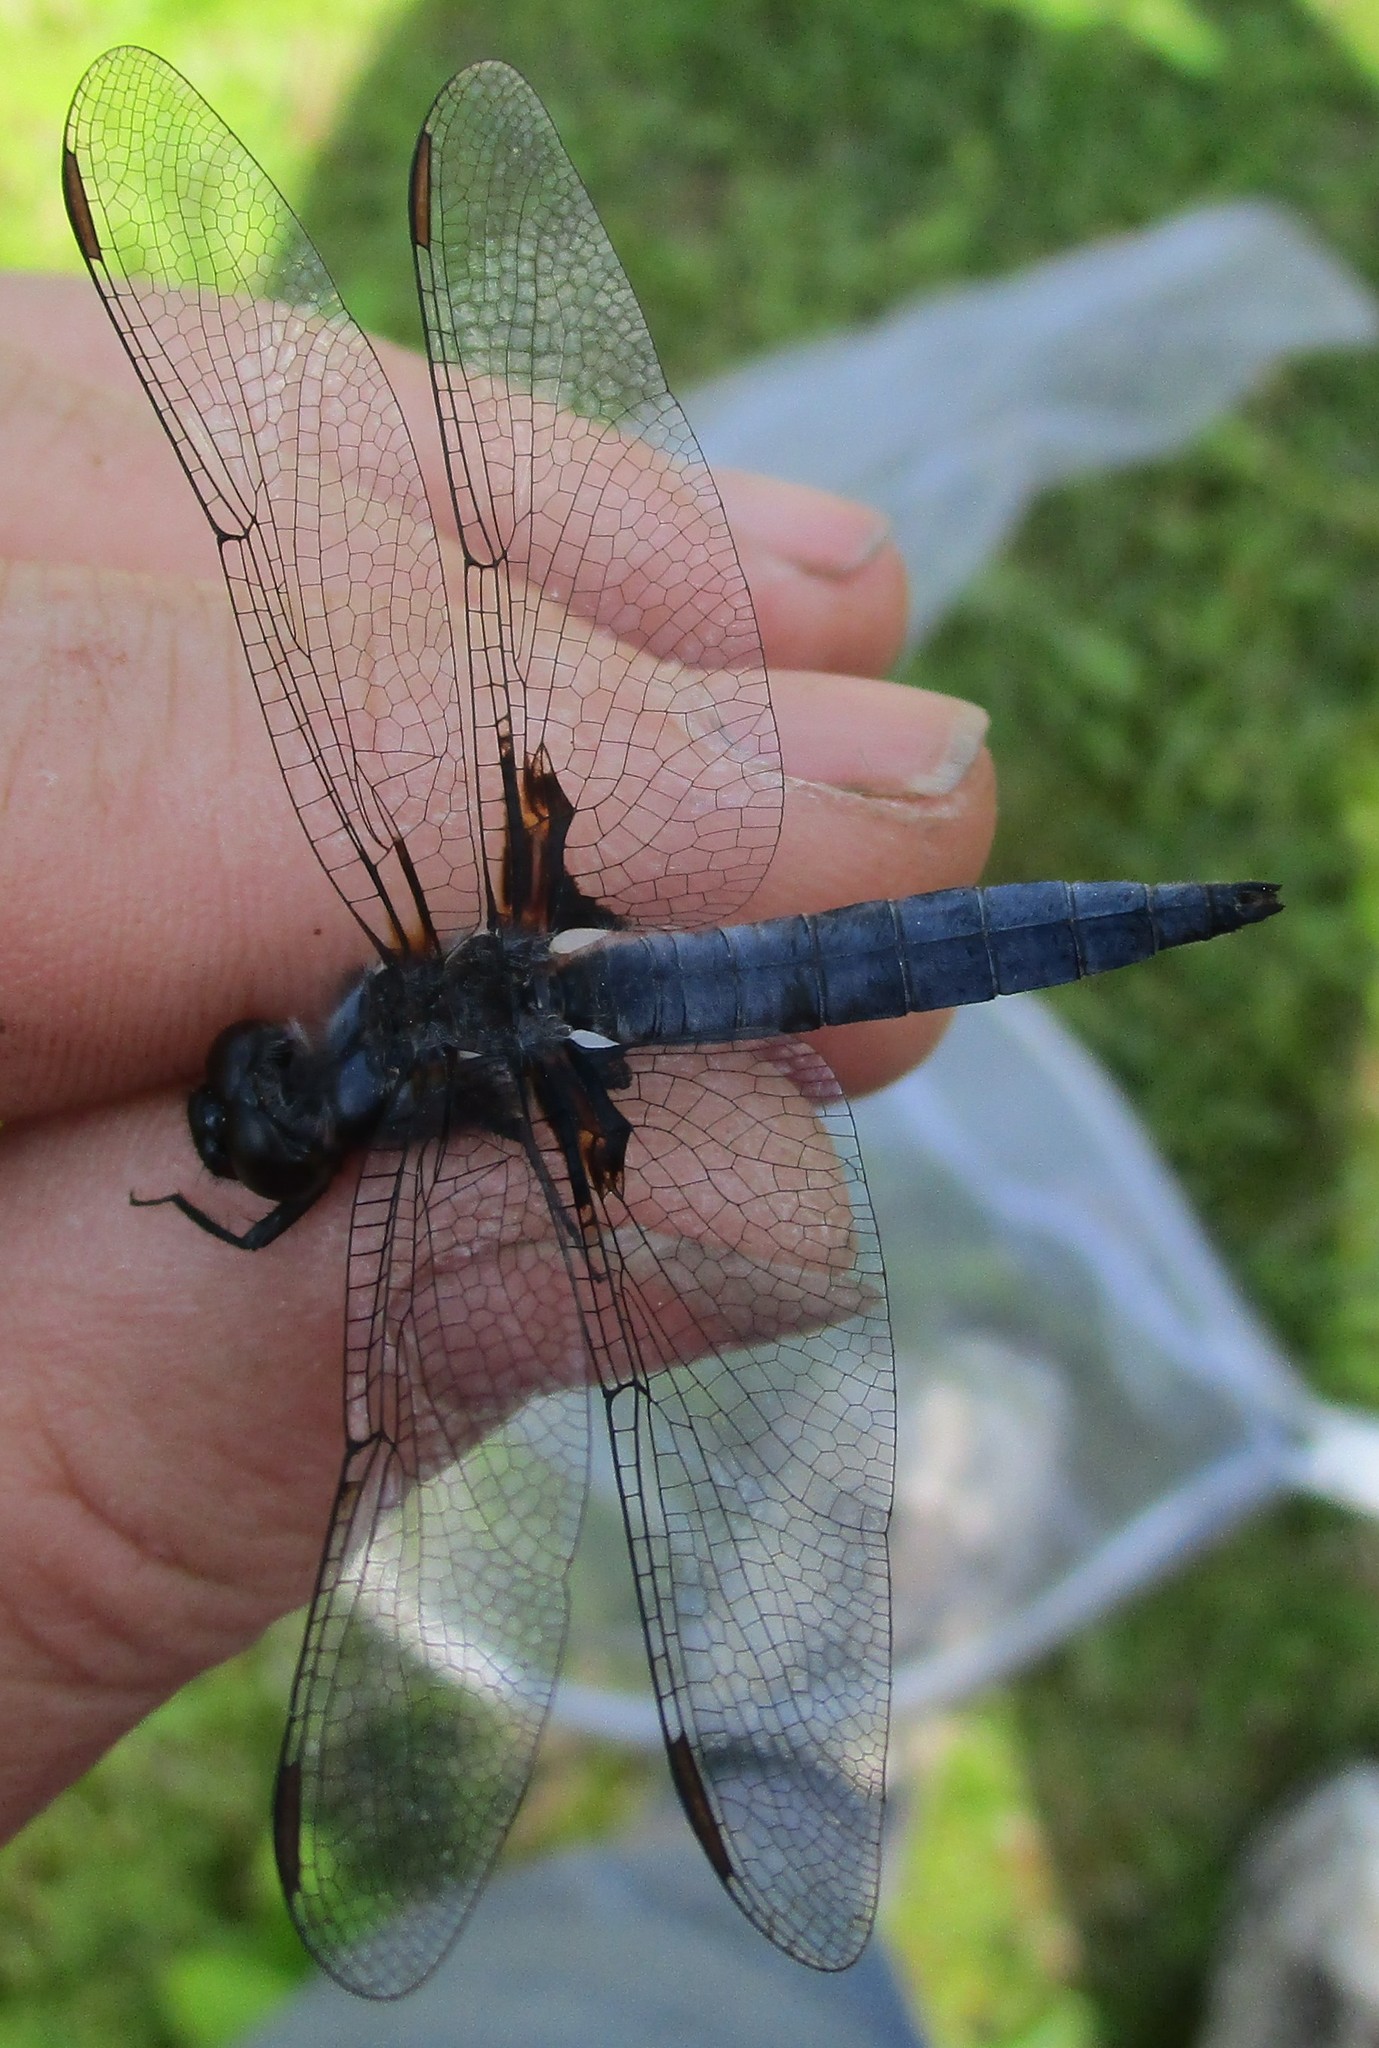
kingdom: Animalia
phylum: Arthropoda
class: Insecta
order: Odonata
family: Libellulidae
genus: Ladona
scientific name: Ladona deplanata
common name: Blue corporal
